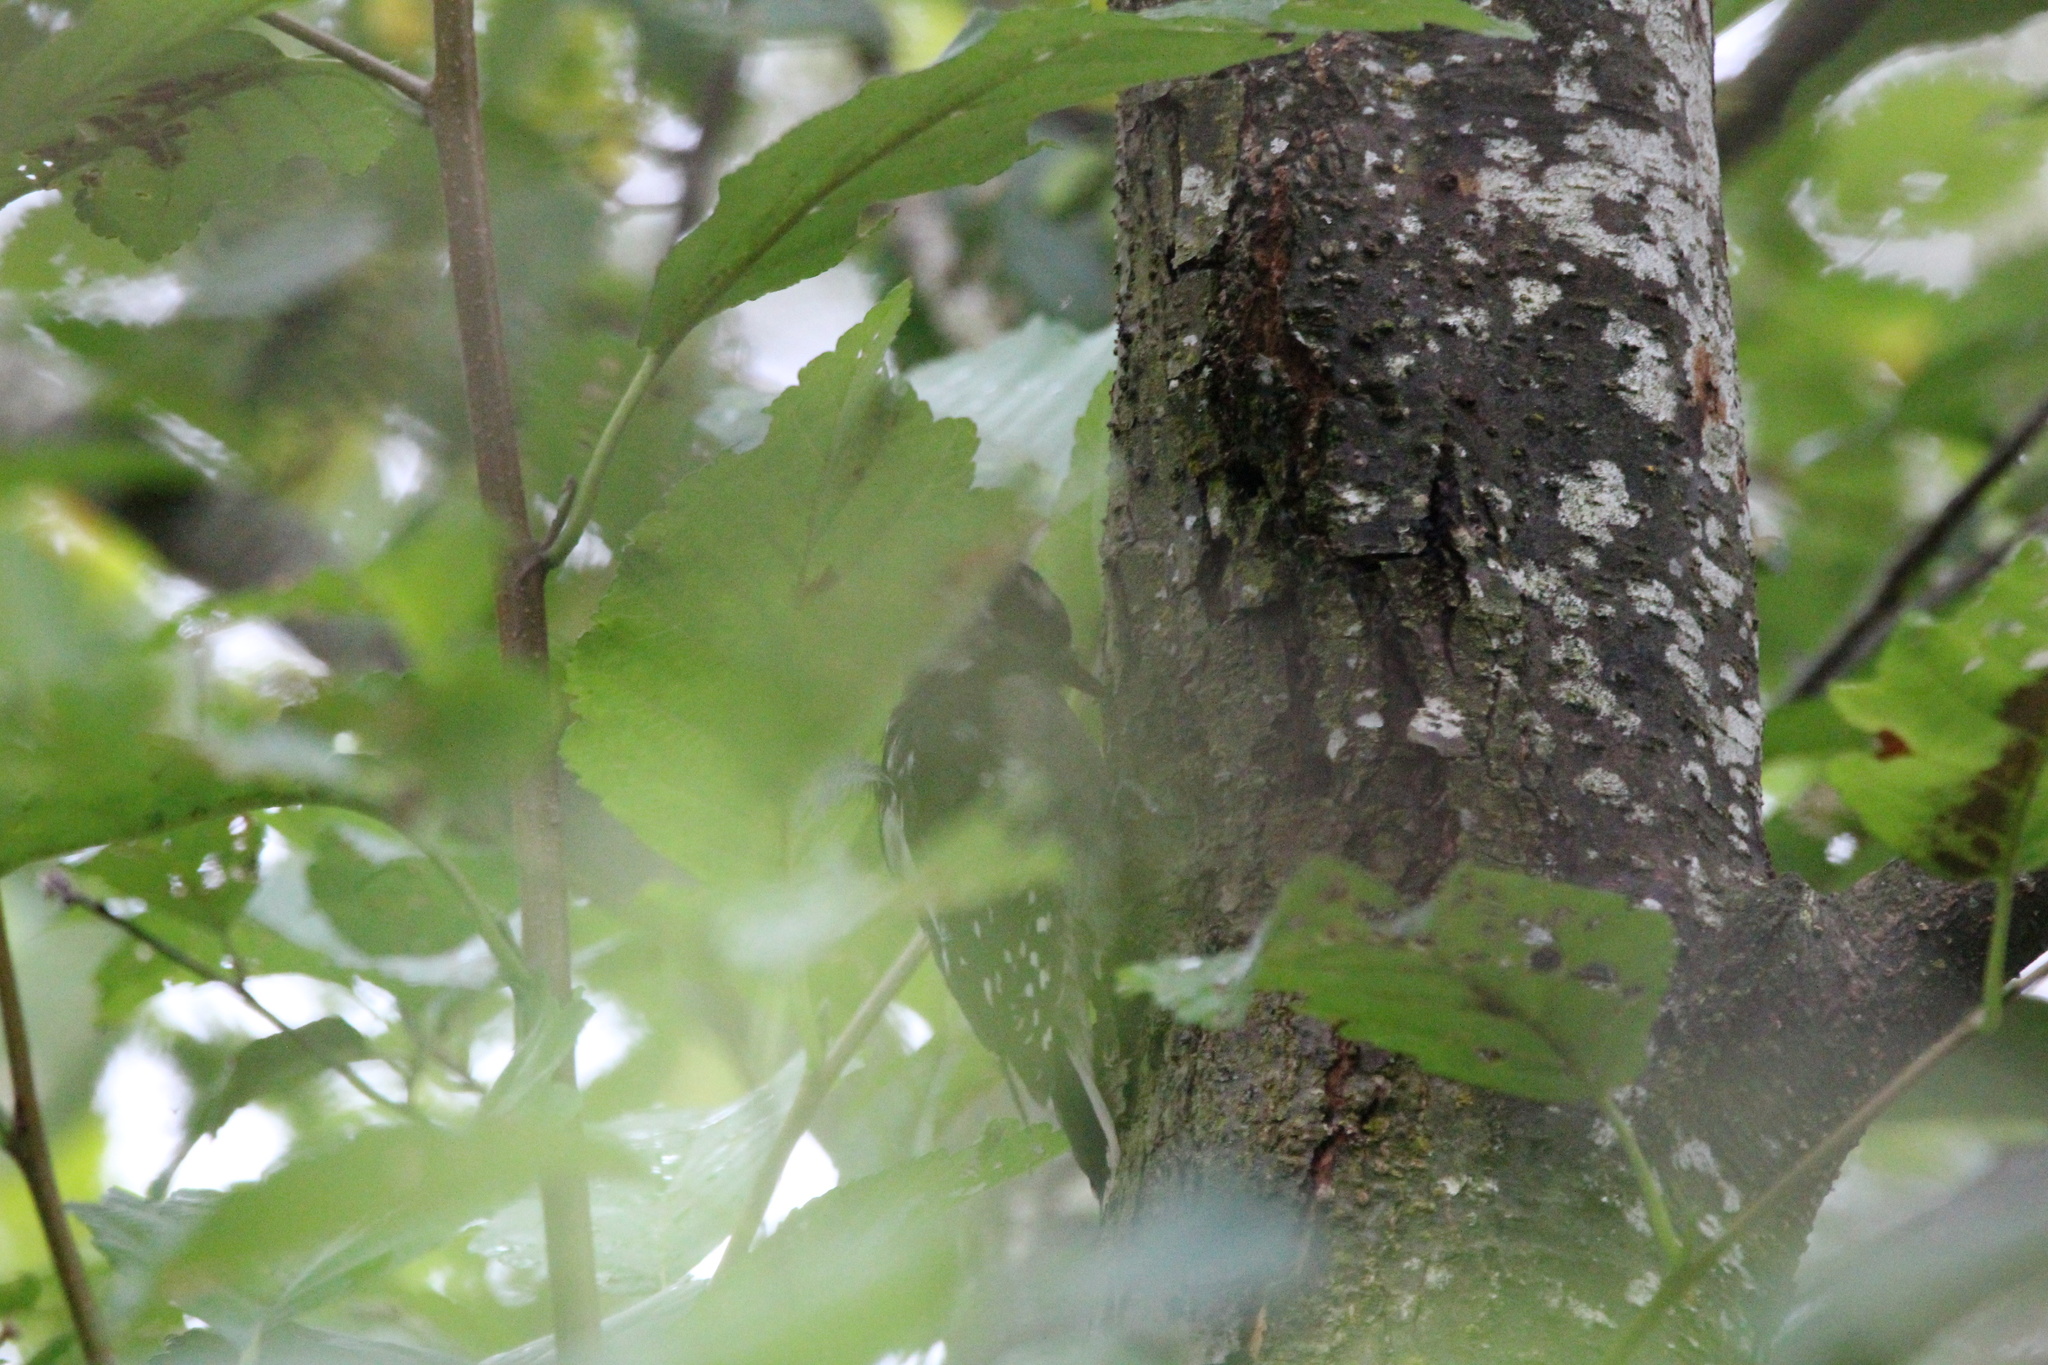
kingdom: Animalia
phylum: Chordata
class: Aves
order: Piciformes
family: Picidae
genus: Dryobates
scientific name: Dryobates pubescens
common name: Downy woodpecker
